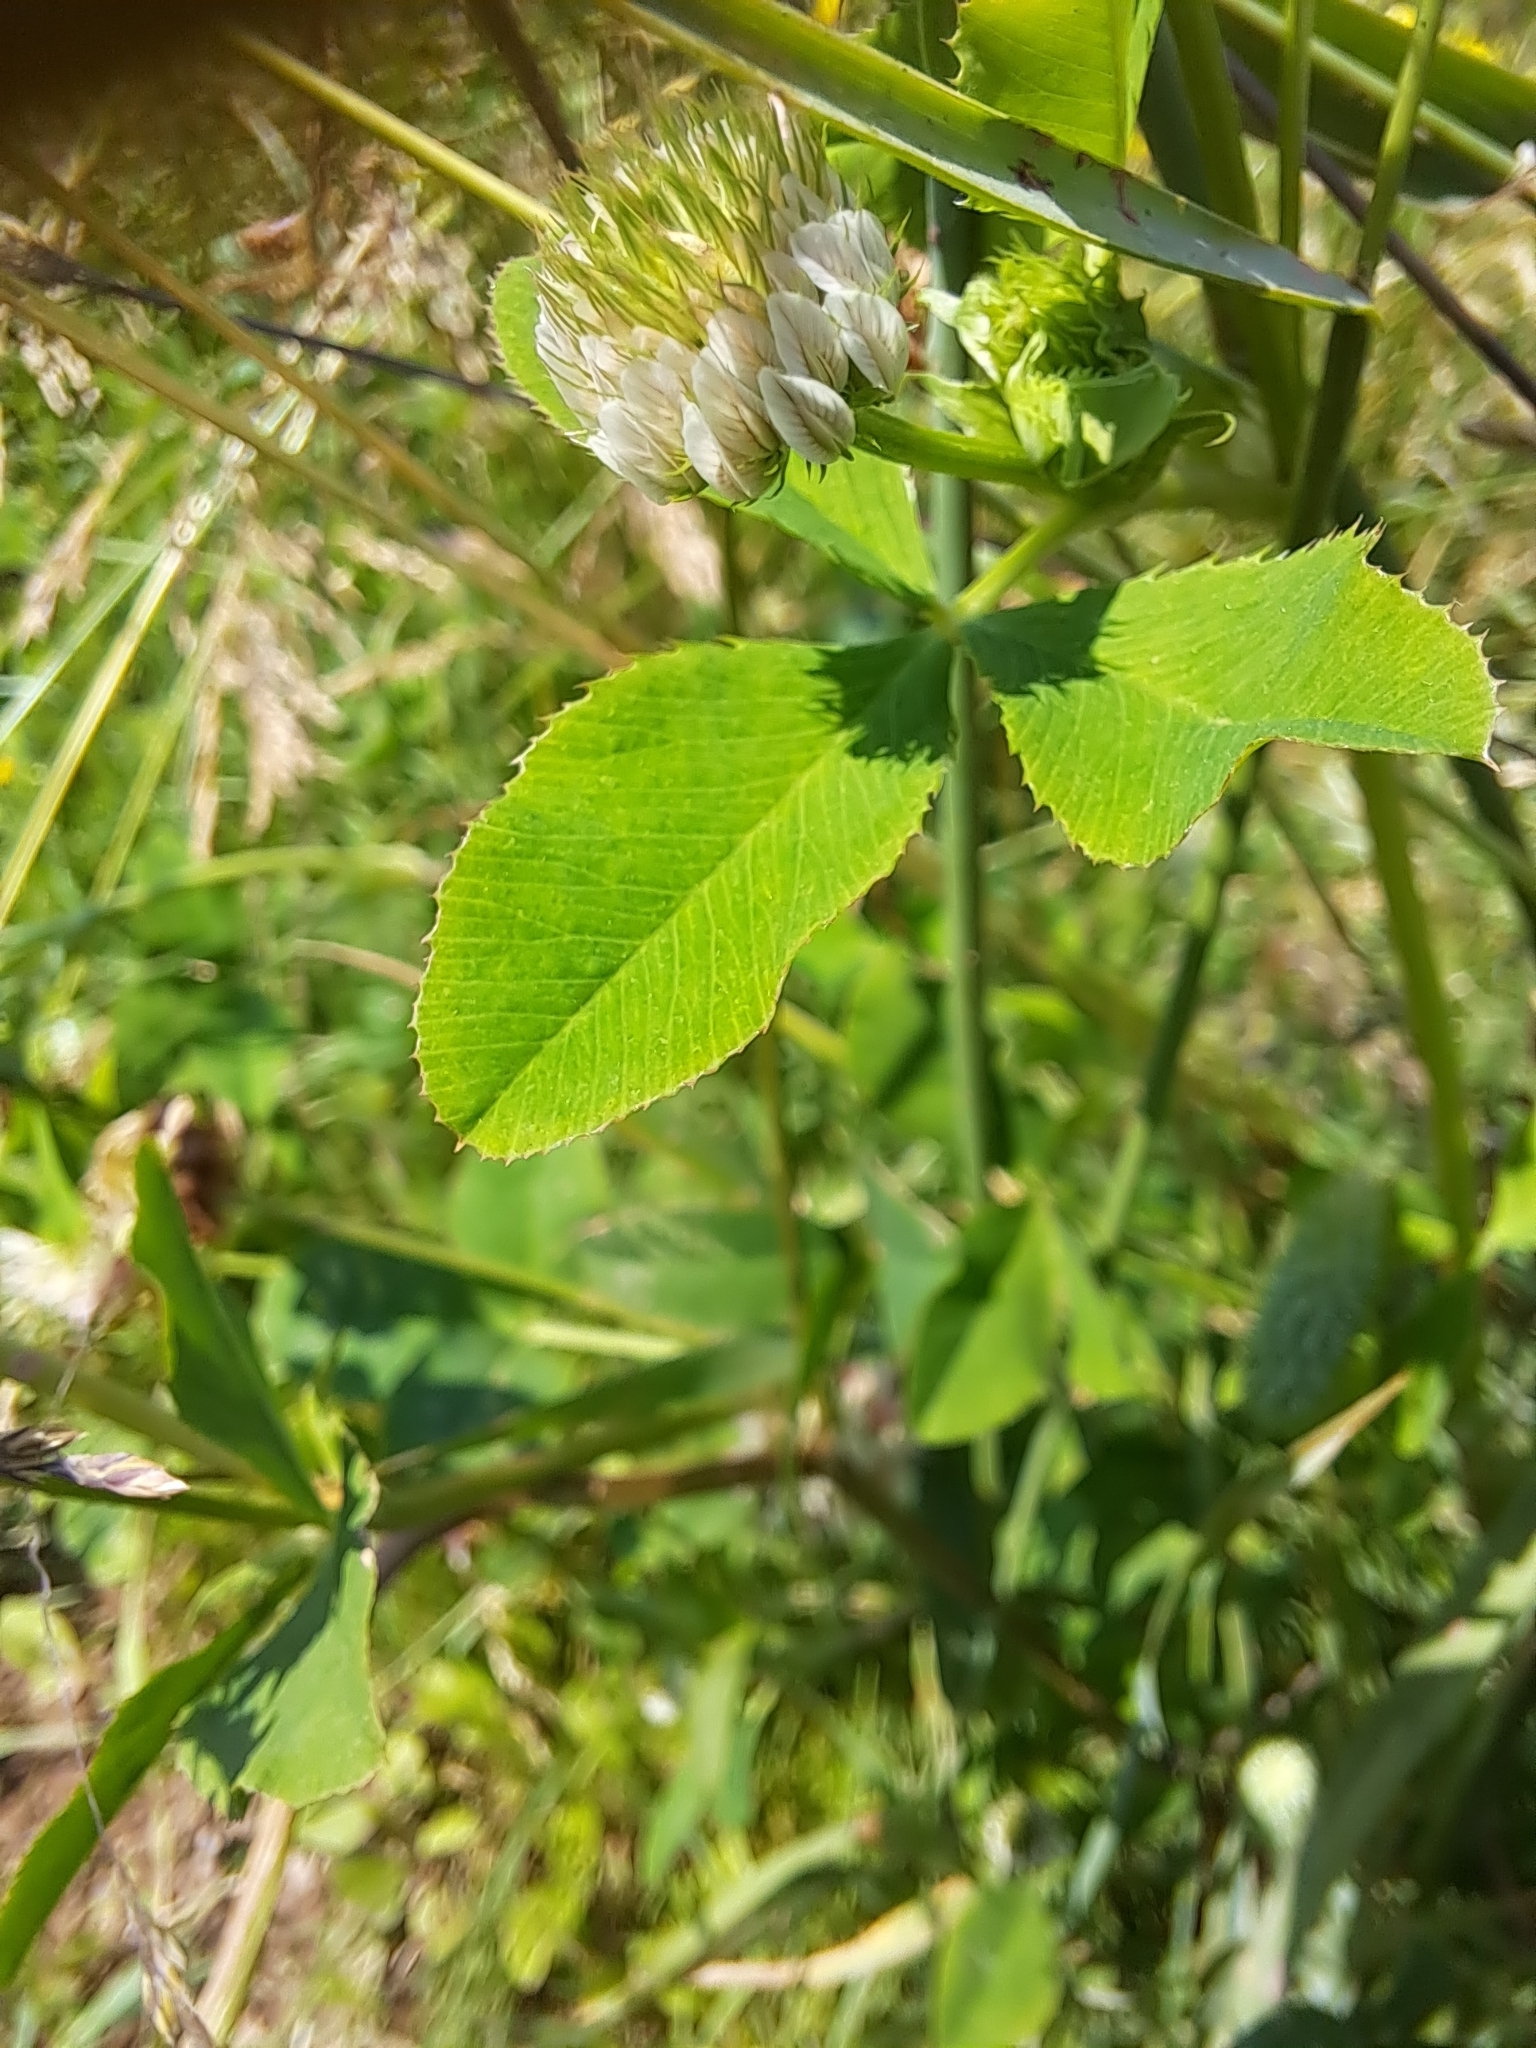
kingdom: Plantae
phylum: Tracheophyta
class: Magnoliopsida
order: Fabales
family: Fabaceae
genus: Trifolium
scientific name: Trifolium hybridum
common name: Alsike clover
